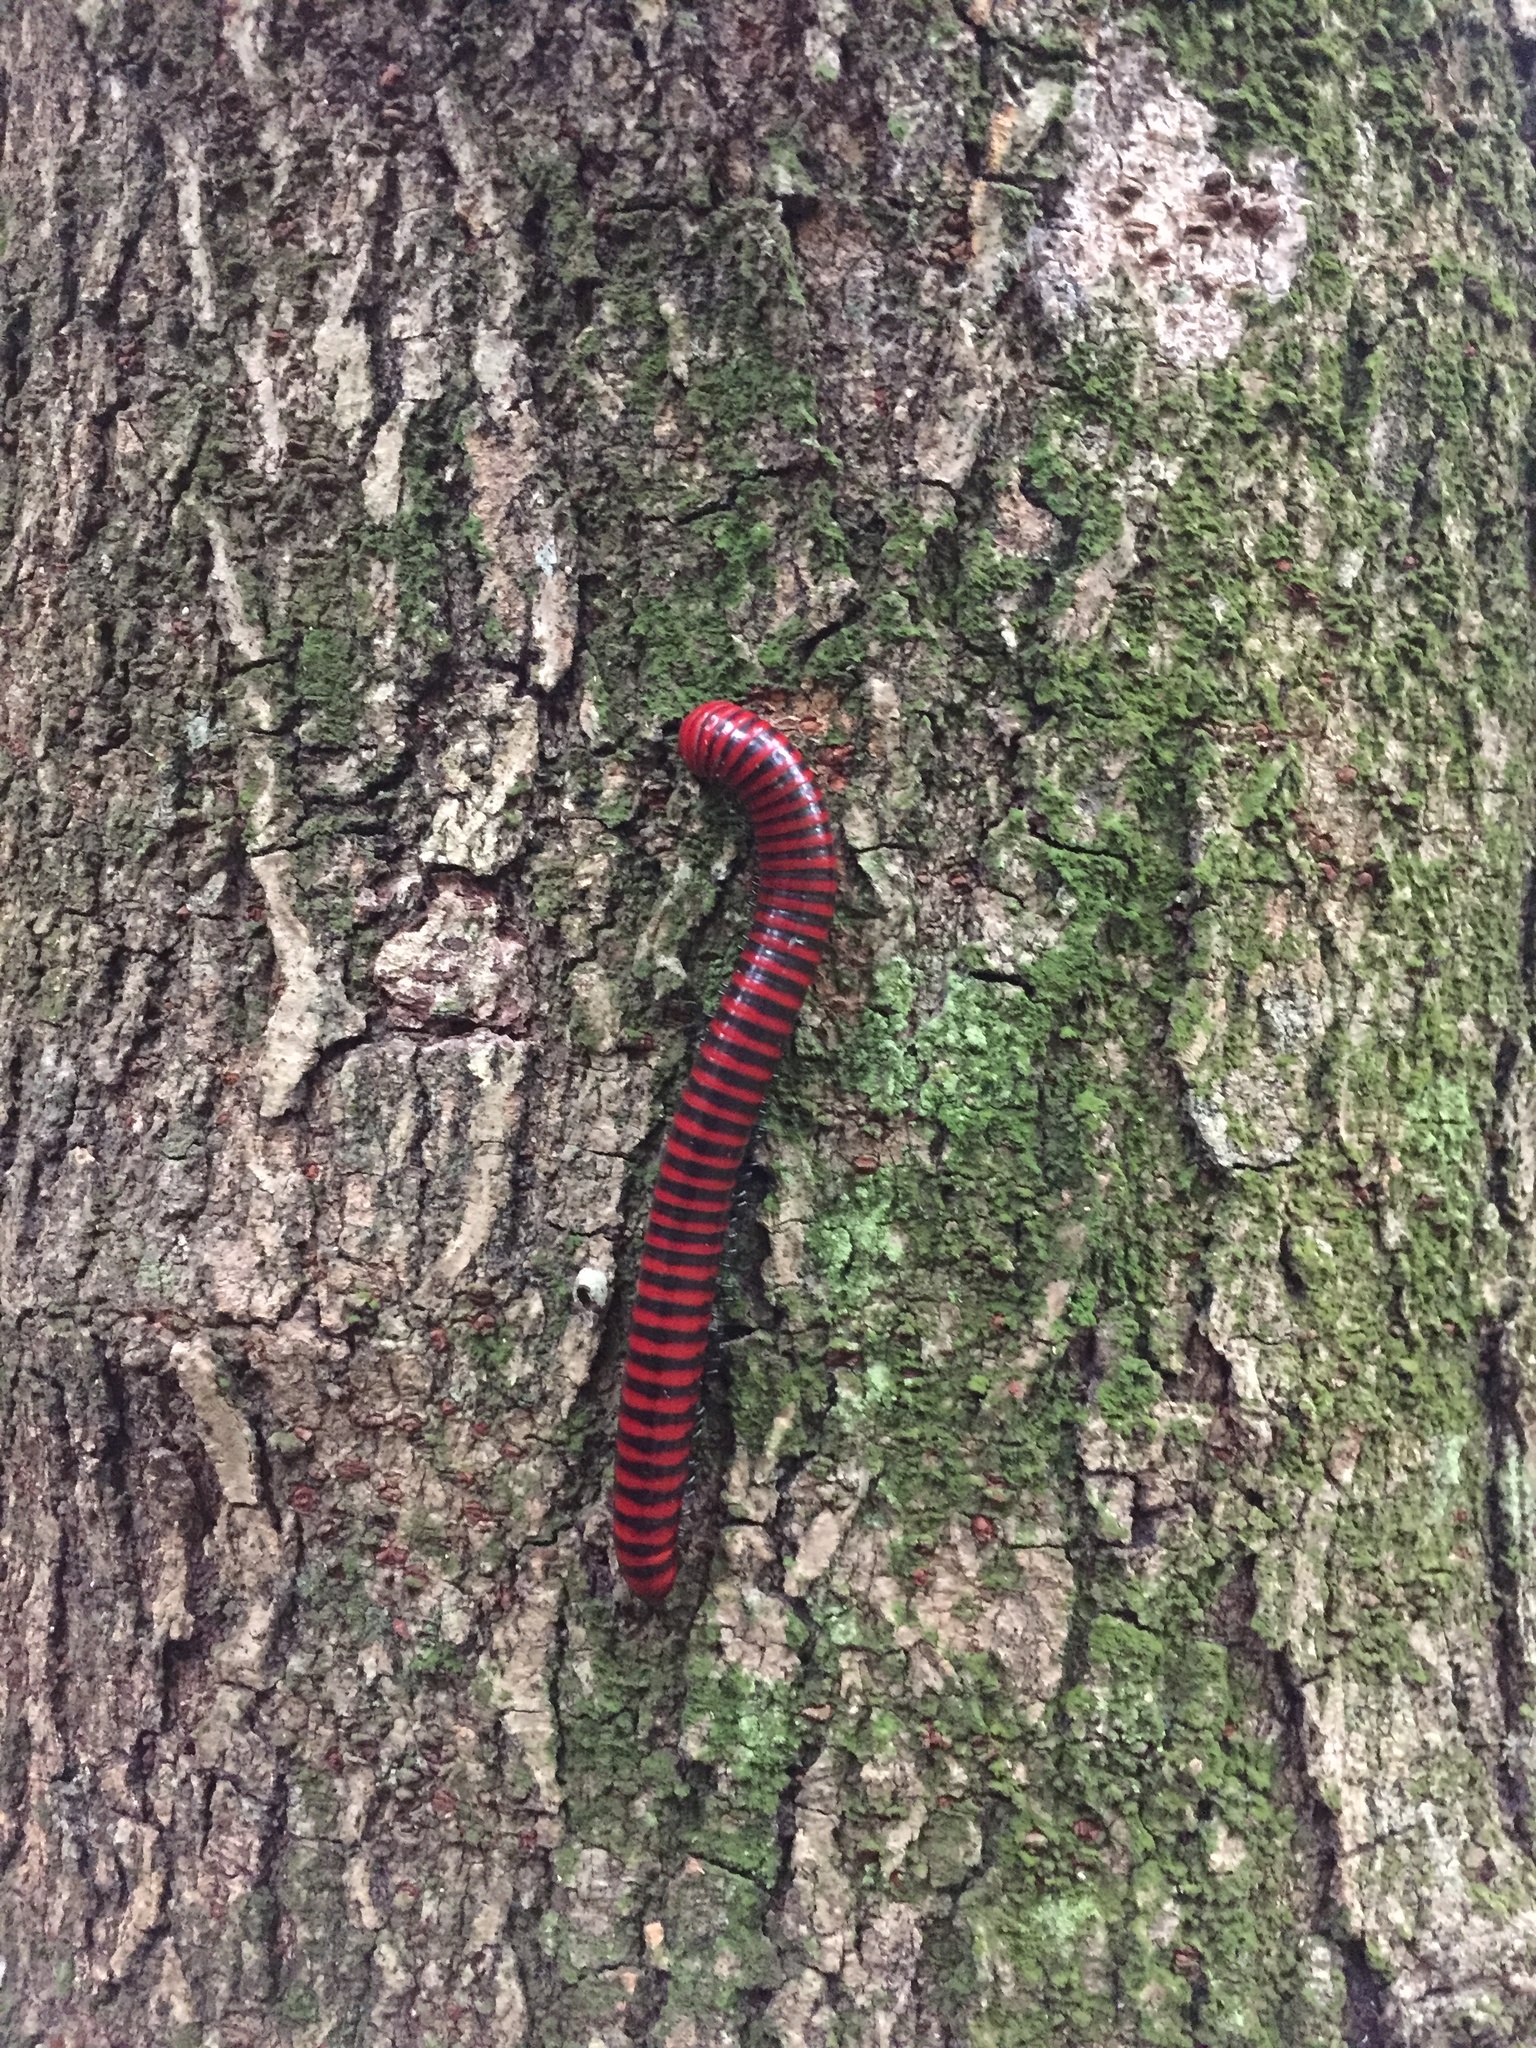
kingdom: Animalia
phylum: Arthropoda
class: Diplopoda
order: Spirobolida
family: Pachybolidae
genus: Centrobolus
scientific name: Centrobolus anulatus
